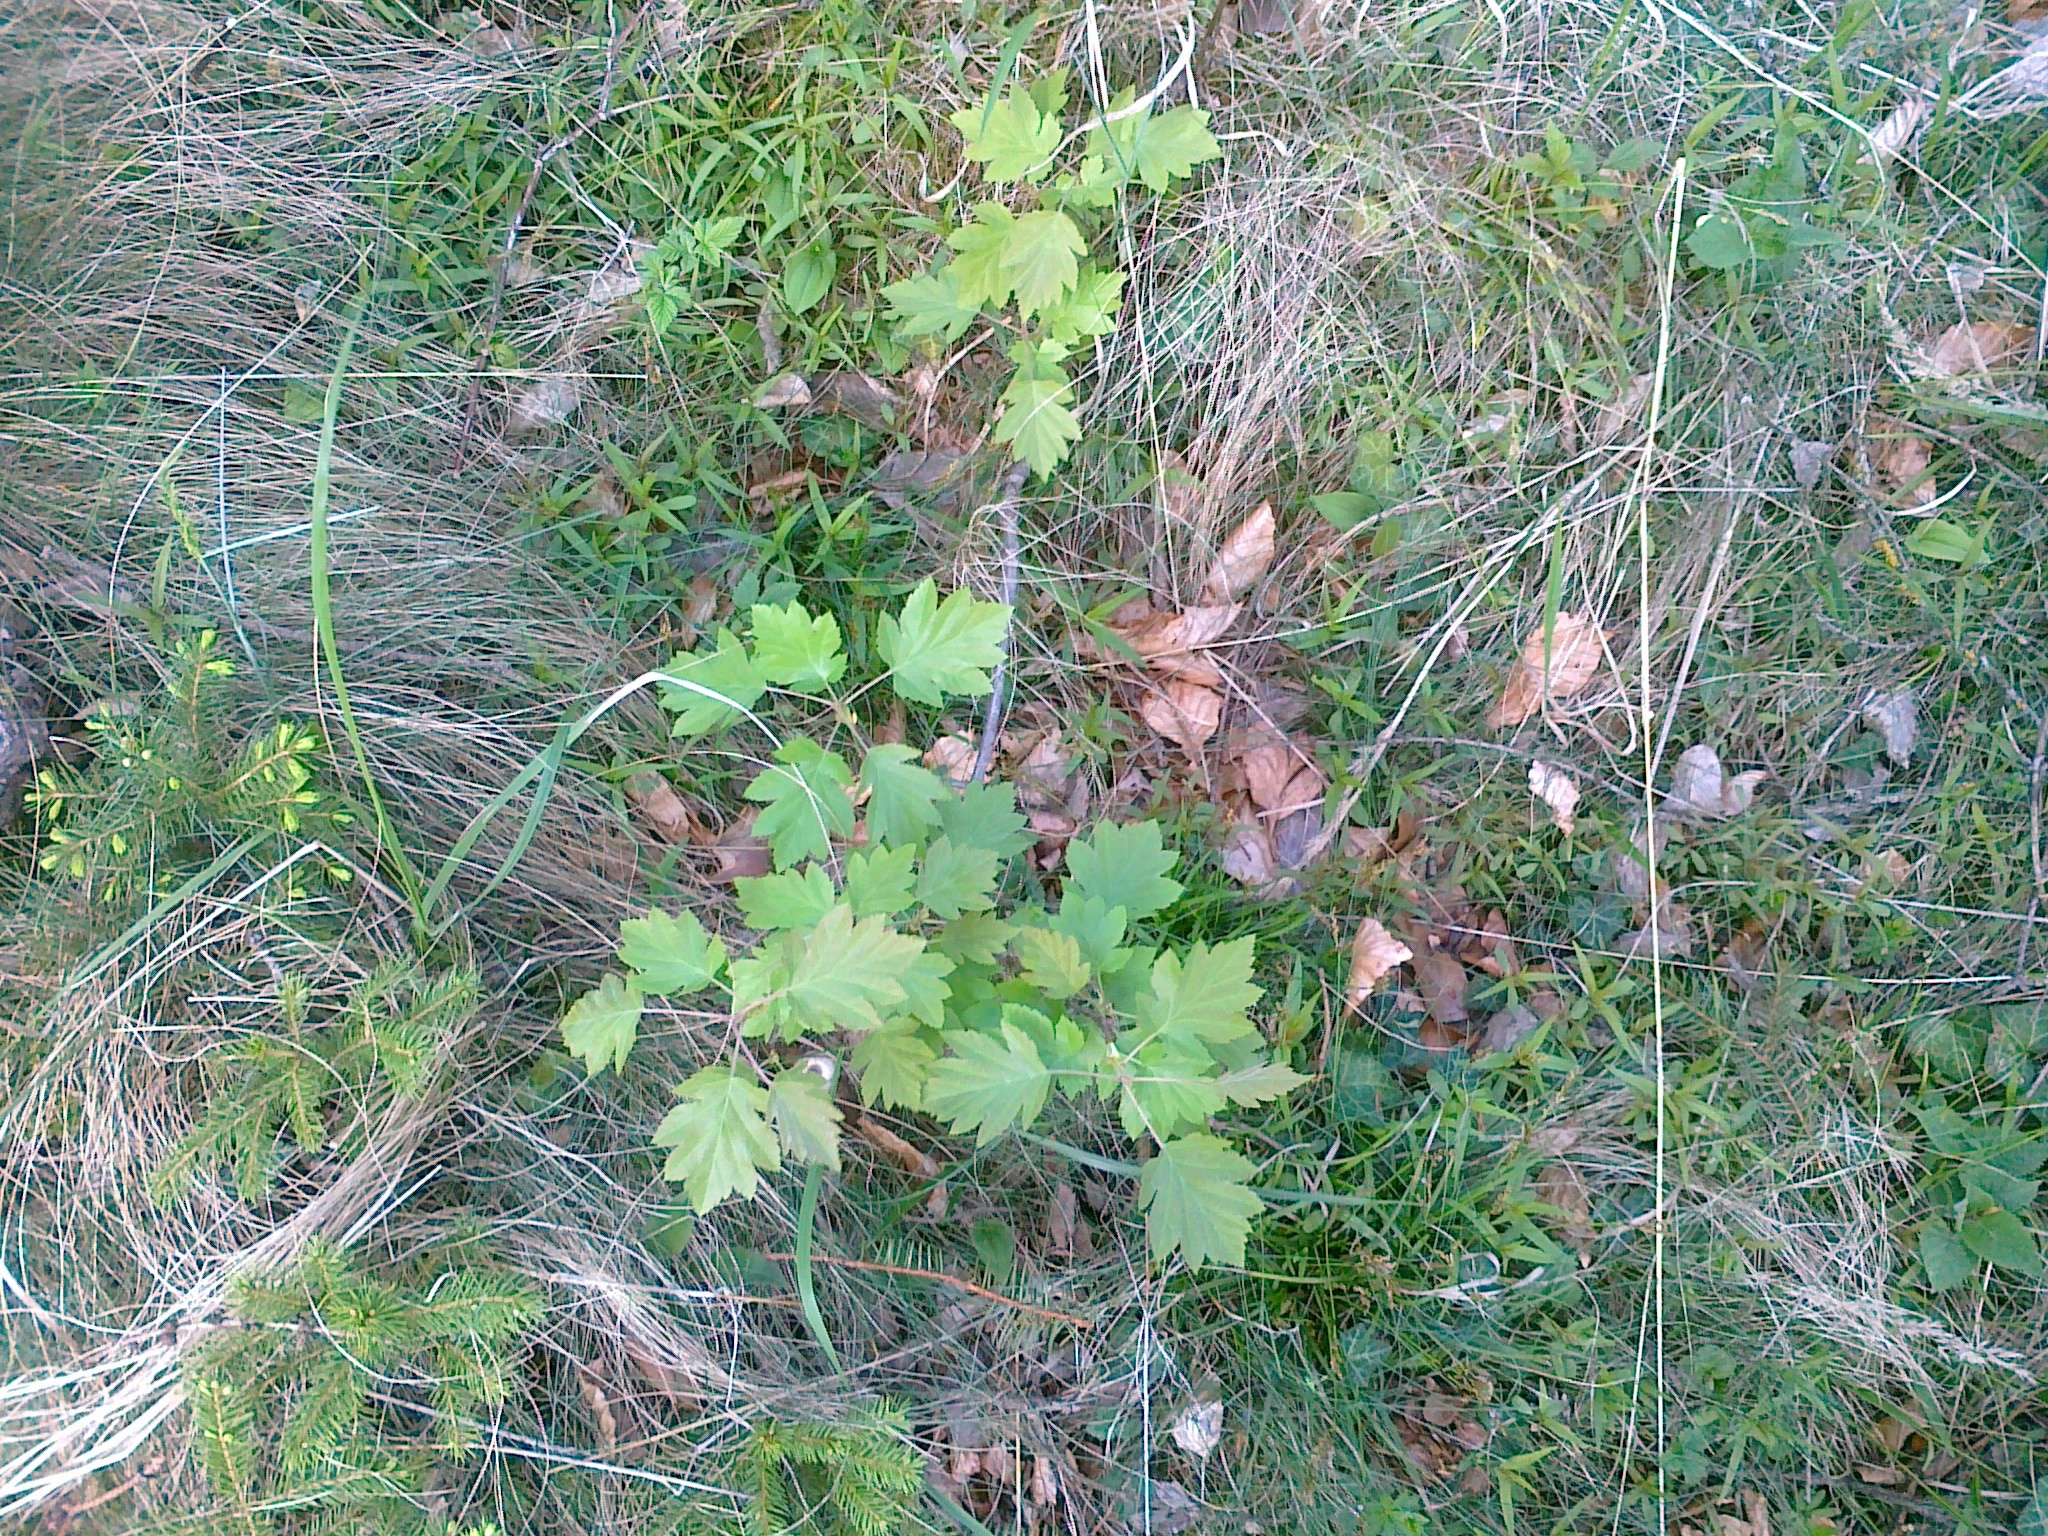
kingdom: Plantae
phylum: Tracheophyta
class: Magnoliopsida
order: Rosales
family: Rosaceae
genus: Torminalis
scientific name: Torminalis glaberrima
